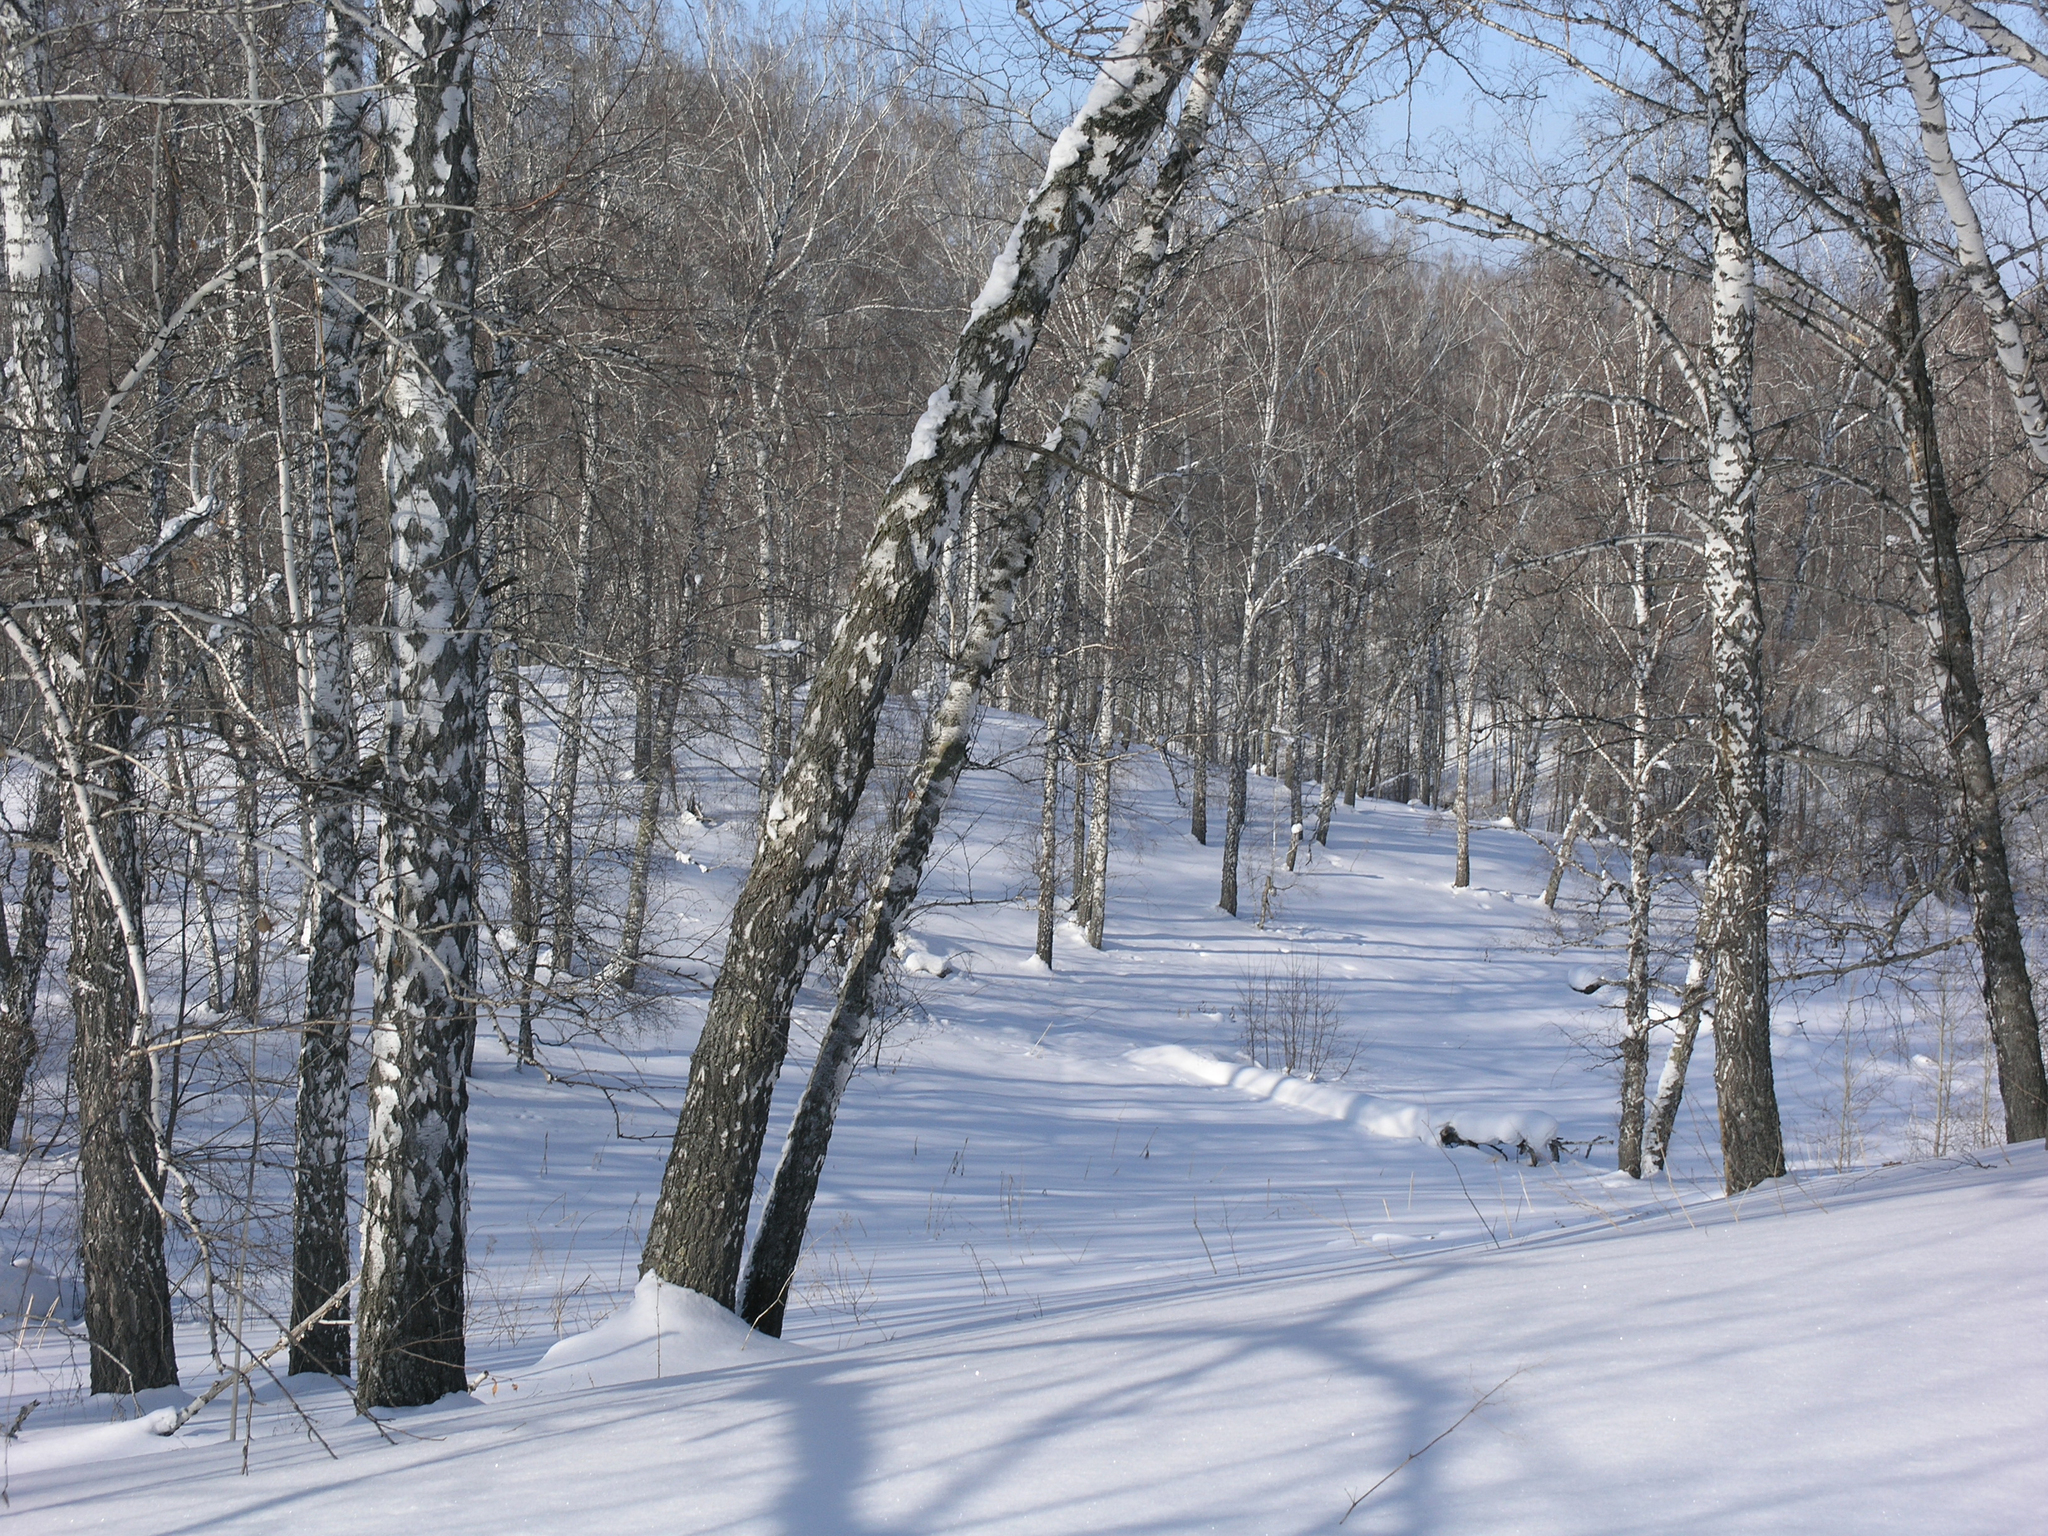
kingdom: Plantae
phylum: Tracheophyta
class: Magnoliopsida
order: Fagales
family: Betulaceae
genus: Betula
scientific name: Betula pendula
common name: Silver birch
